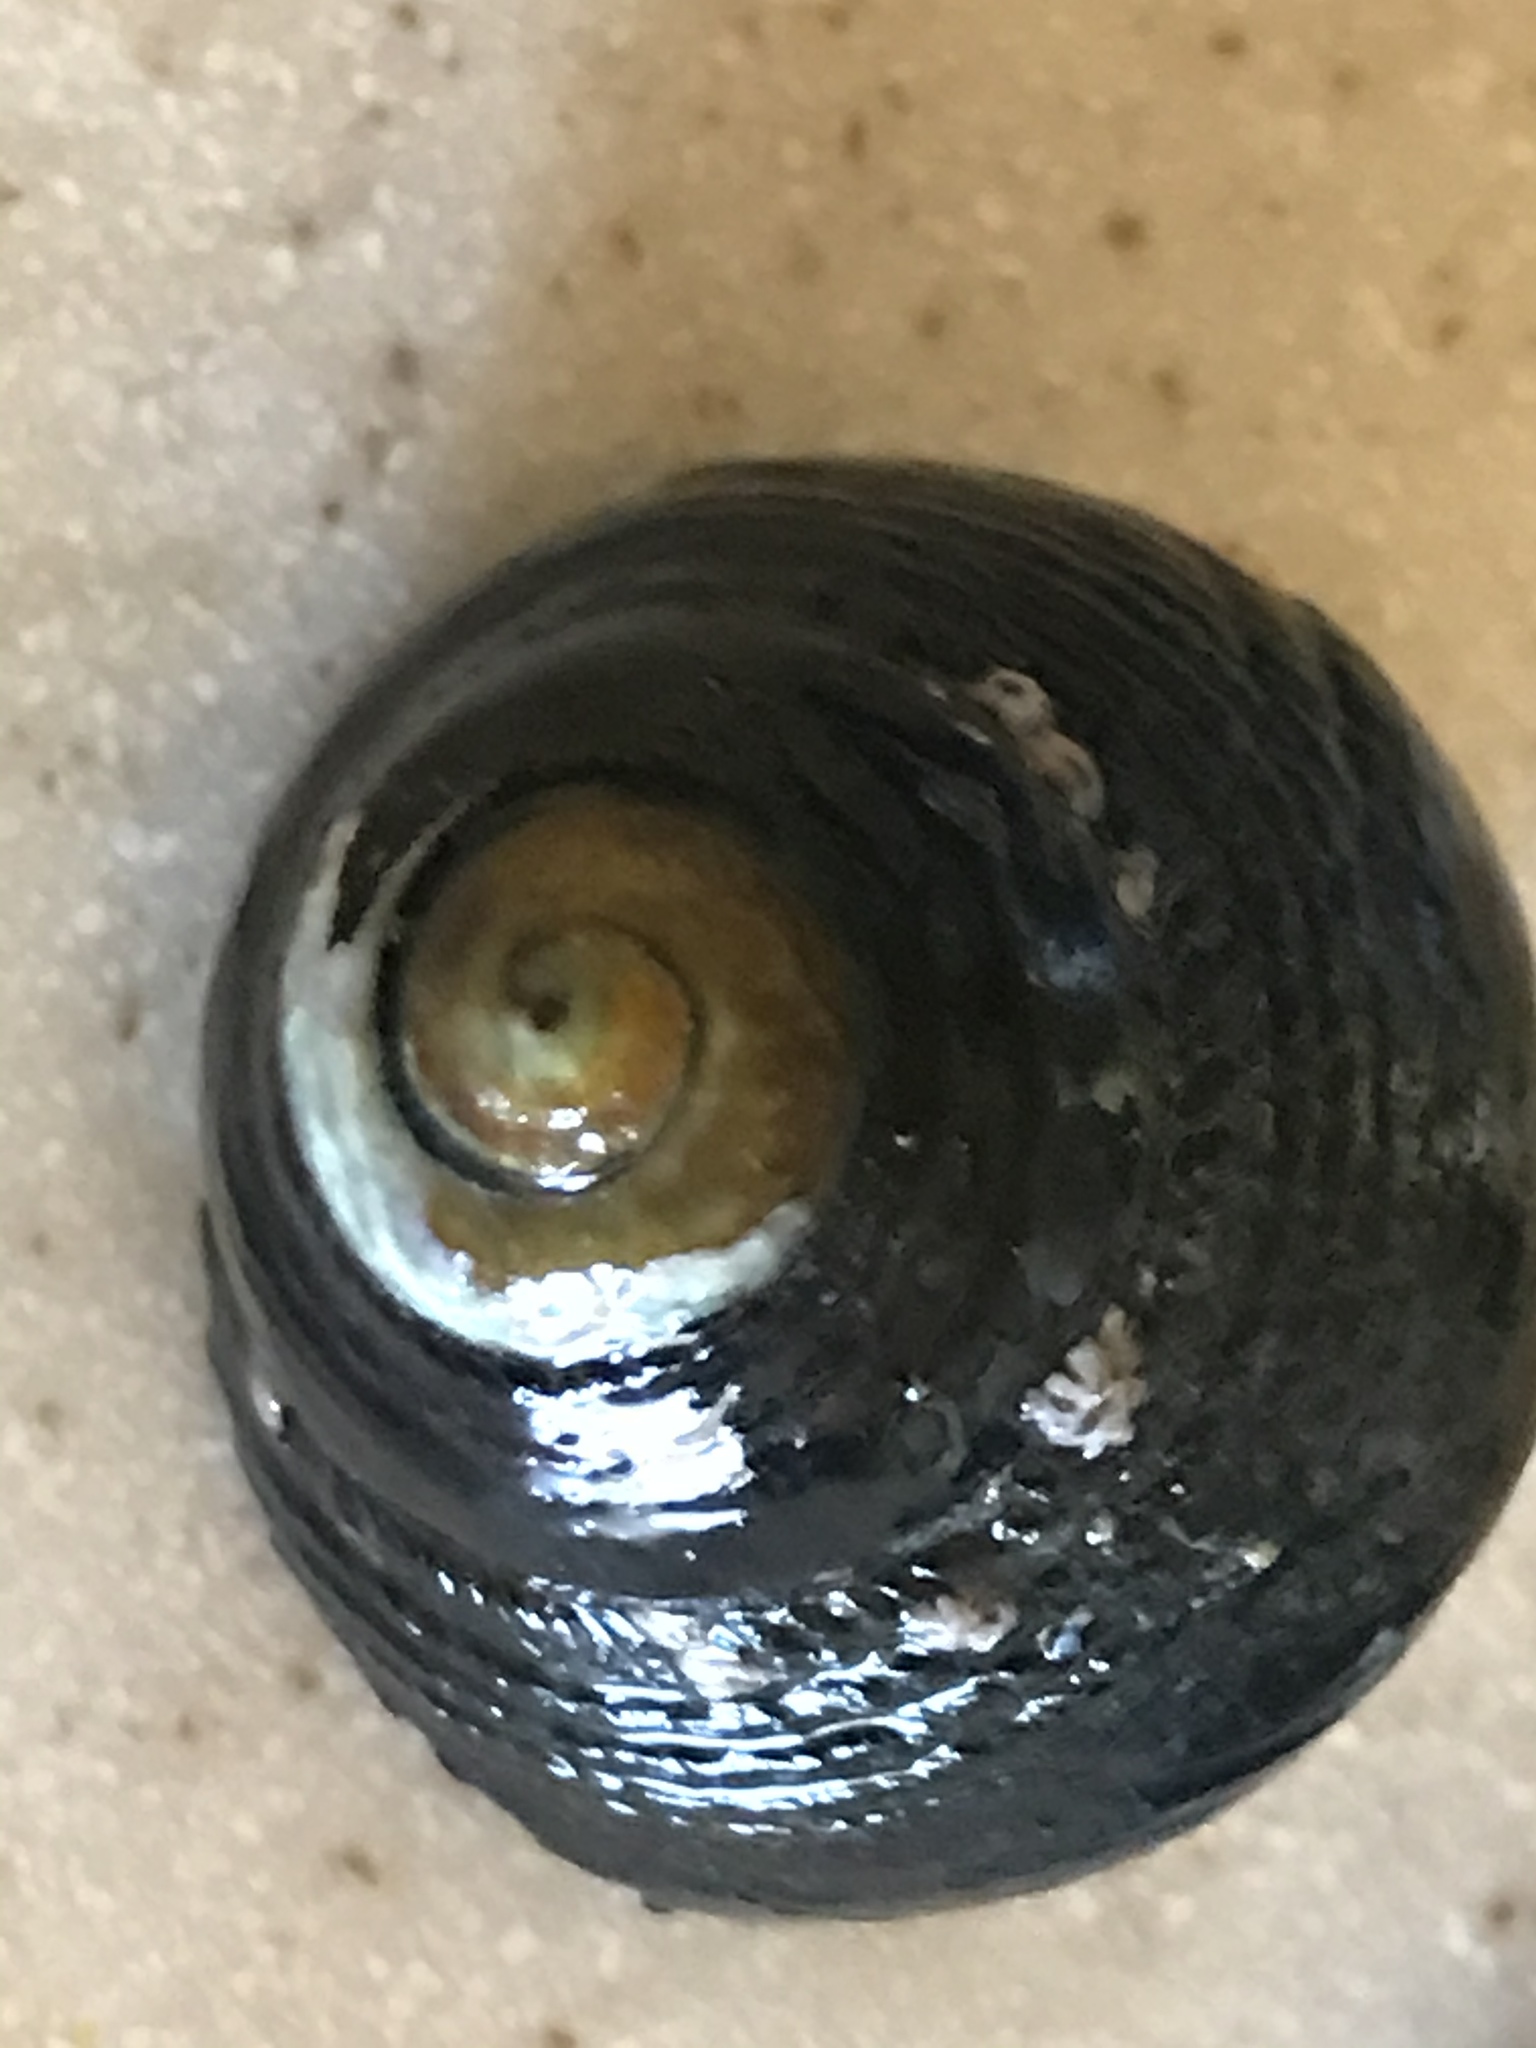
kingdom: Animalia
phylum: Mollusca
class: Gastropoda
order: Trochida
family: Tegulidae
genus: Tegula
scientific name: Tegula funebralis
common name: Black tegula
